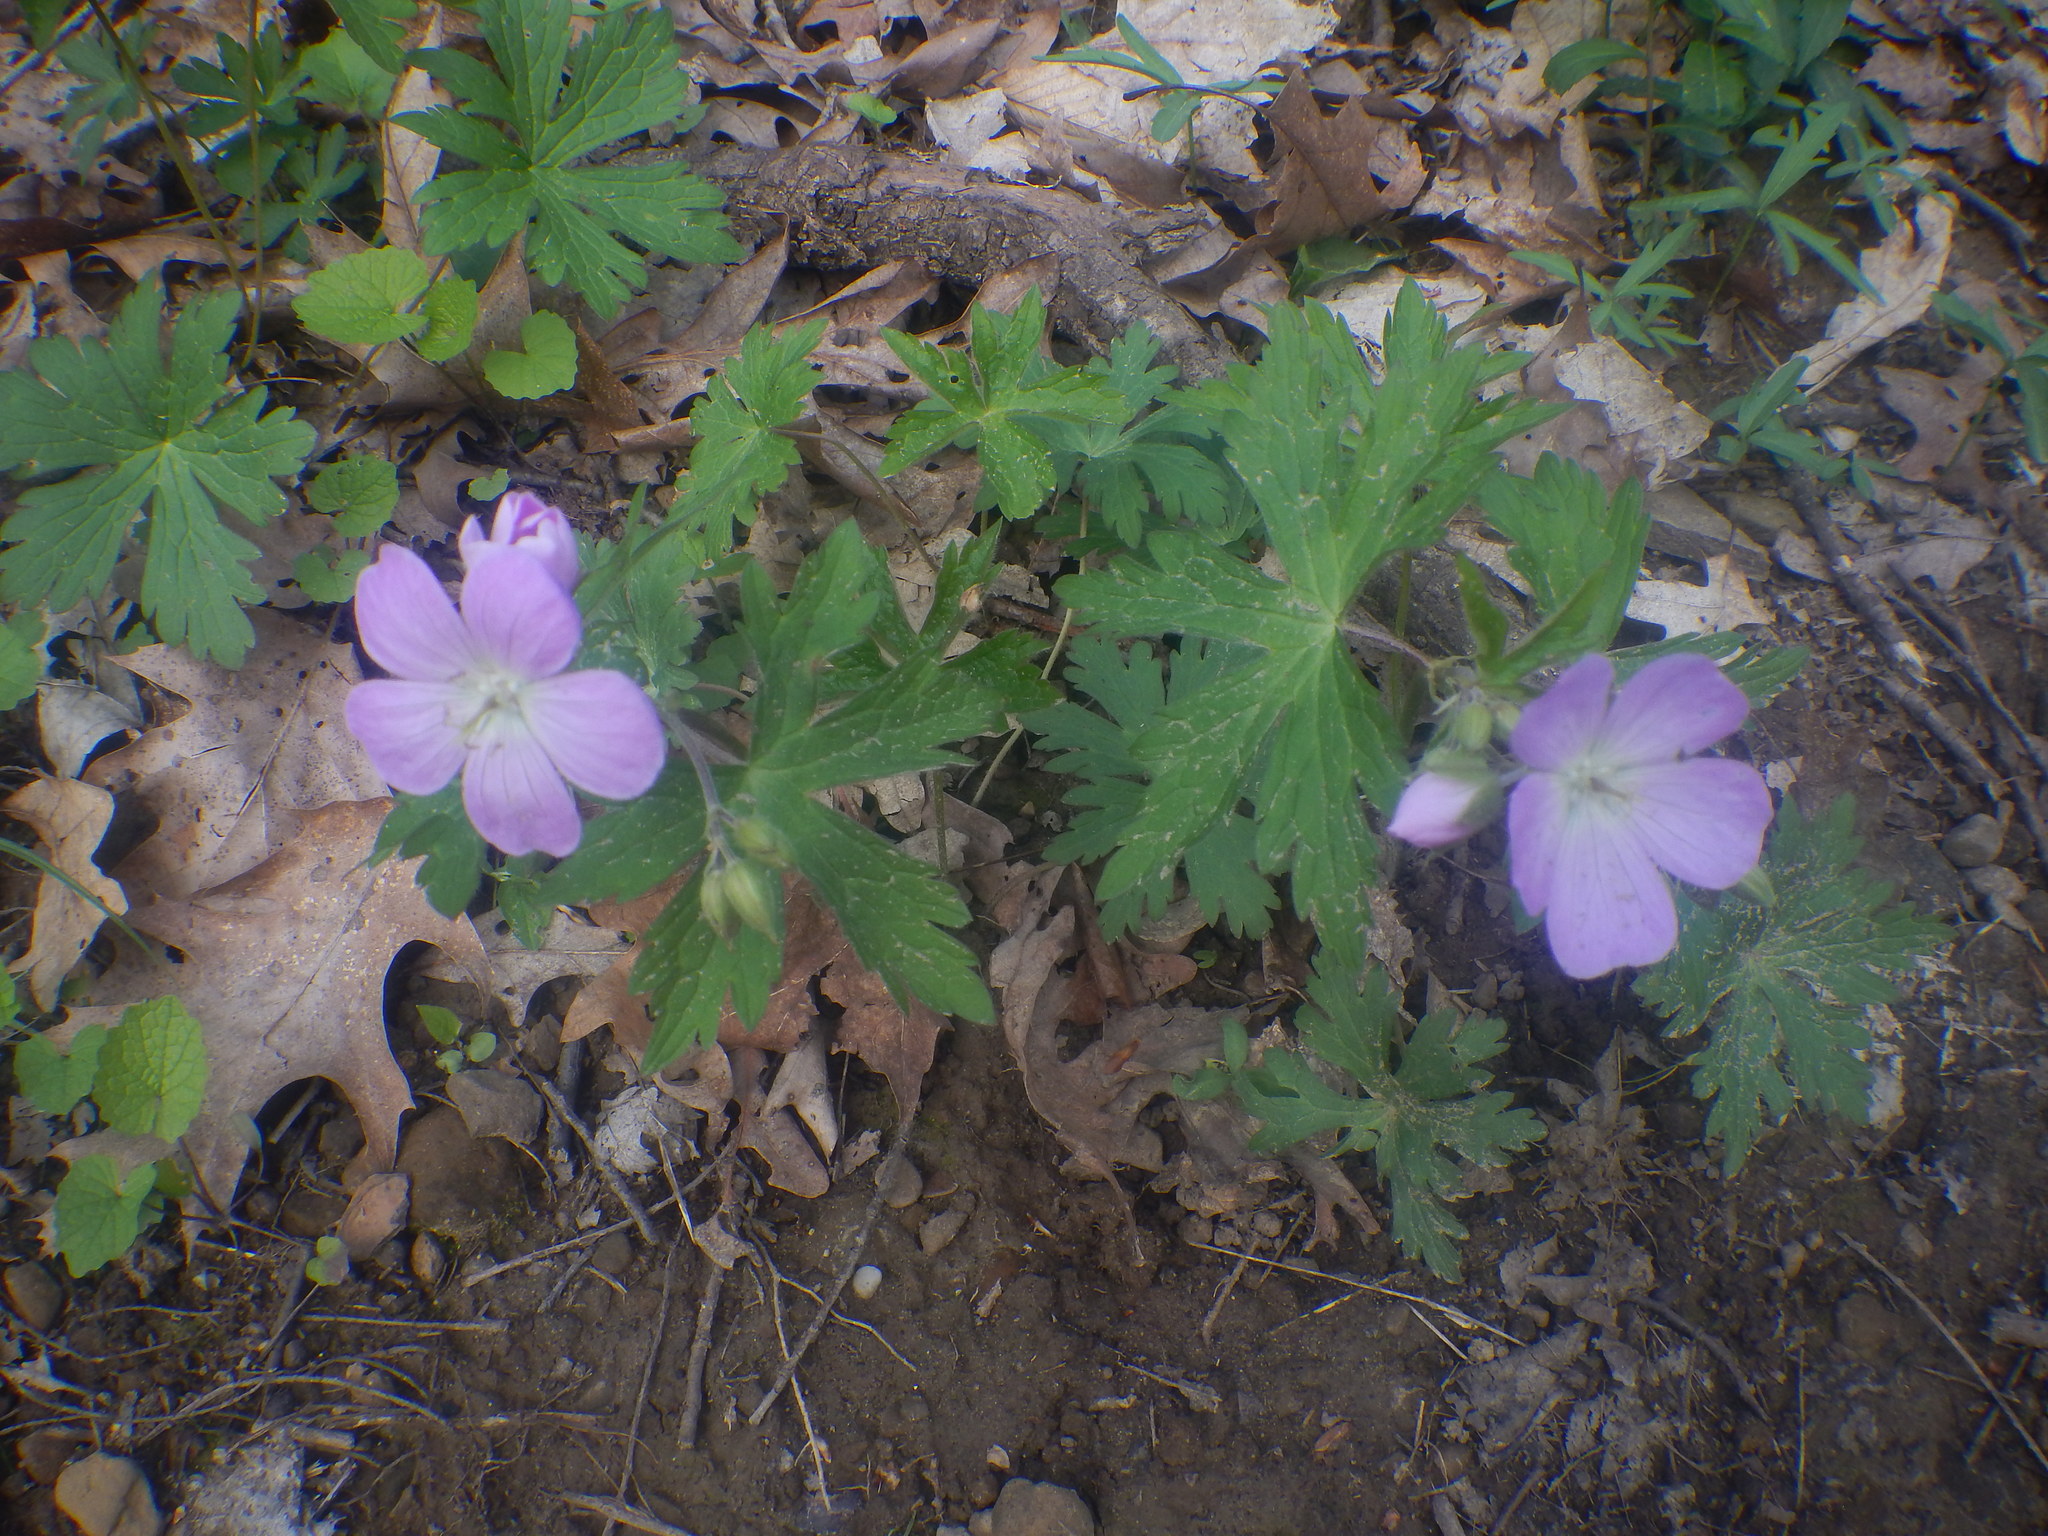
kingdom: Plantae
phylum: Tracheophyta
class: Magnoliopsida
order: Geraniales
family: Geraniaceae
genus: Geranium
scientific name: Geranium maculatum
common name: Spotted geranium
